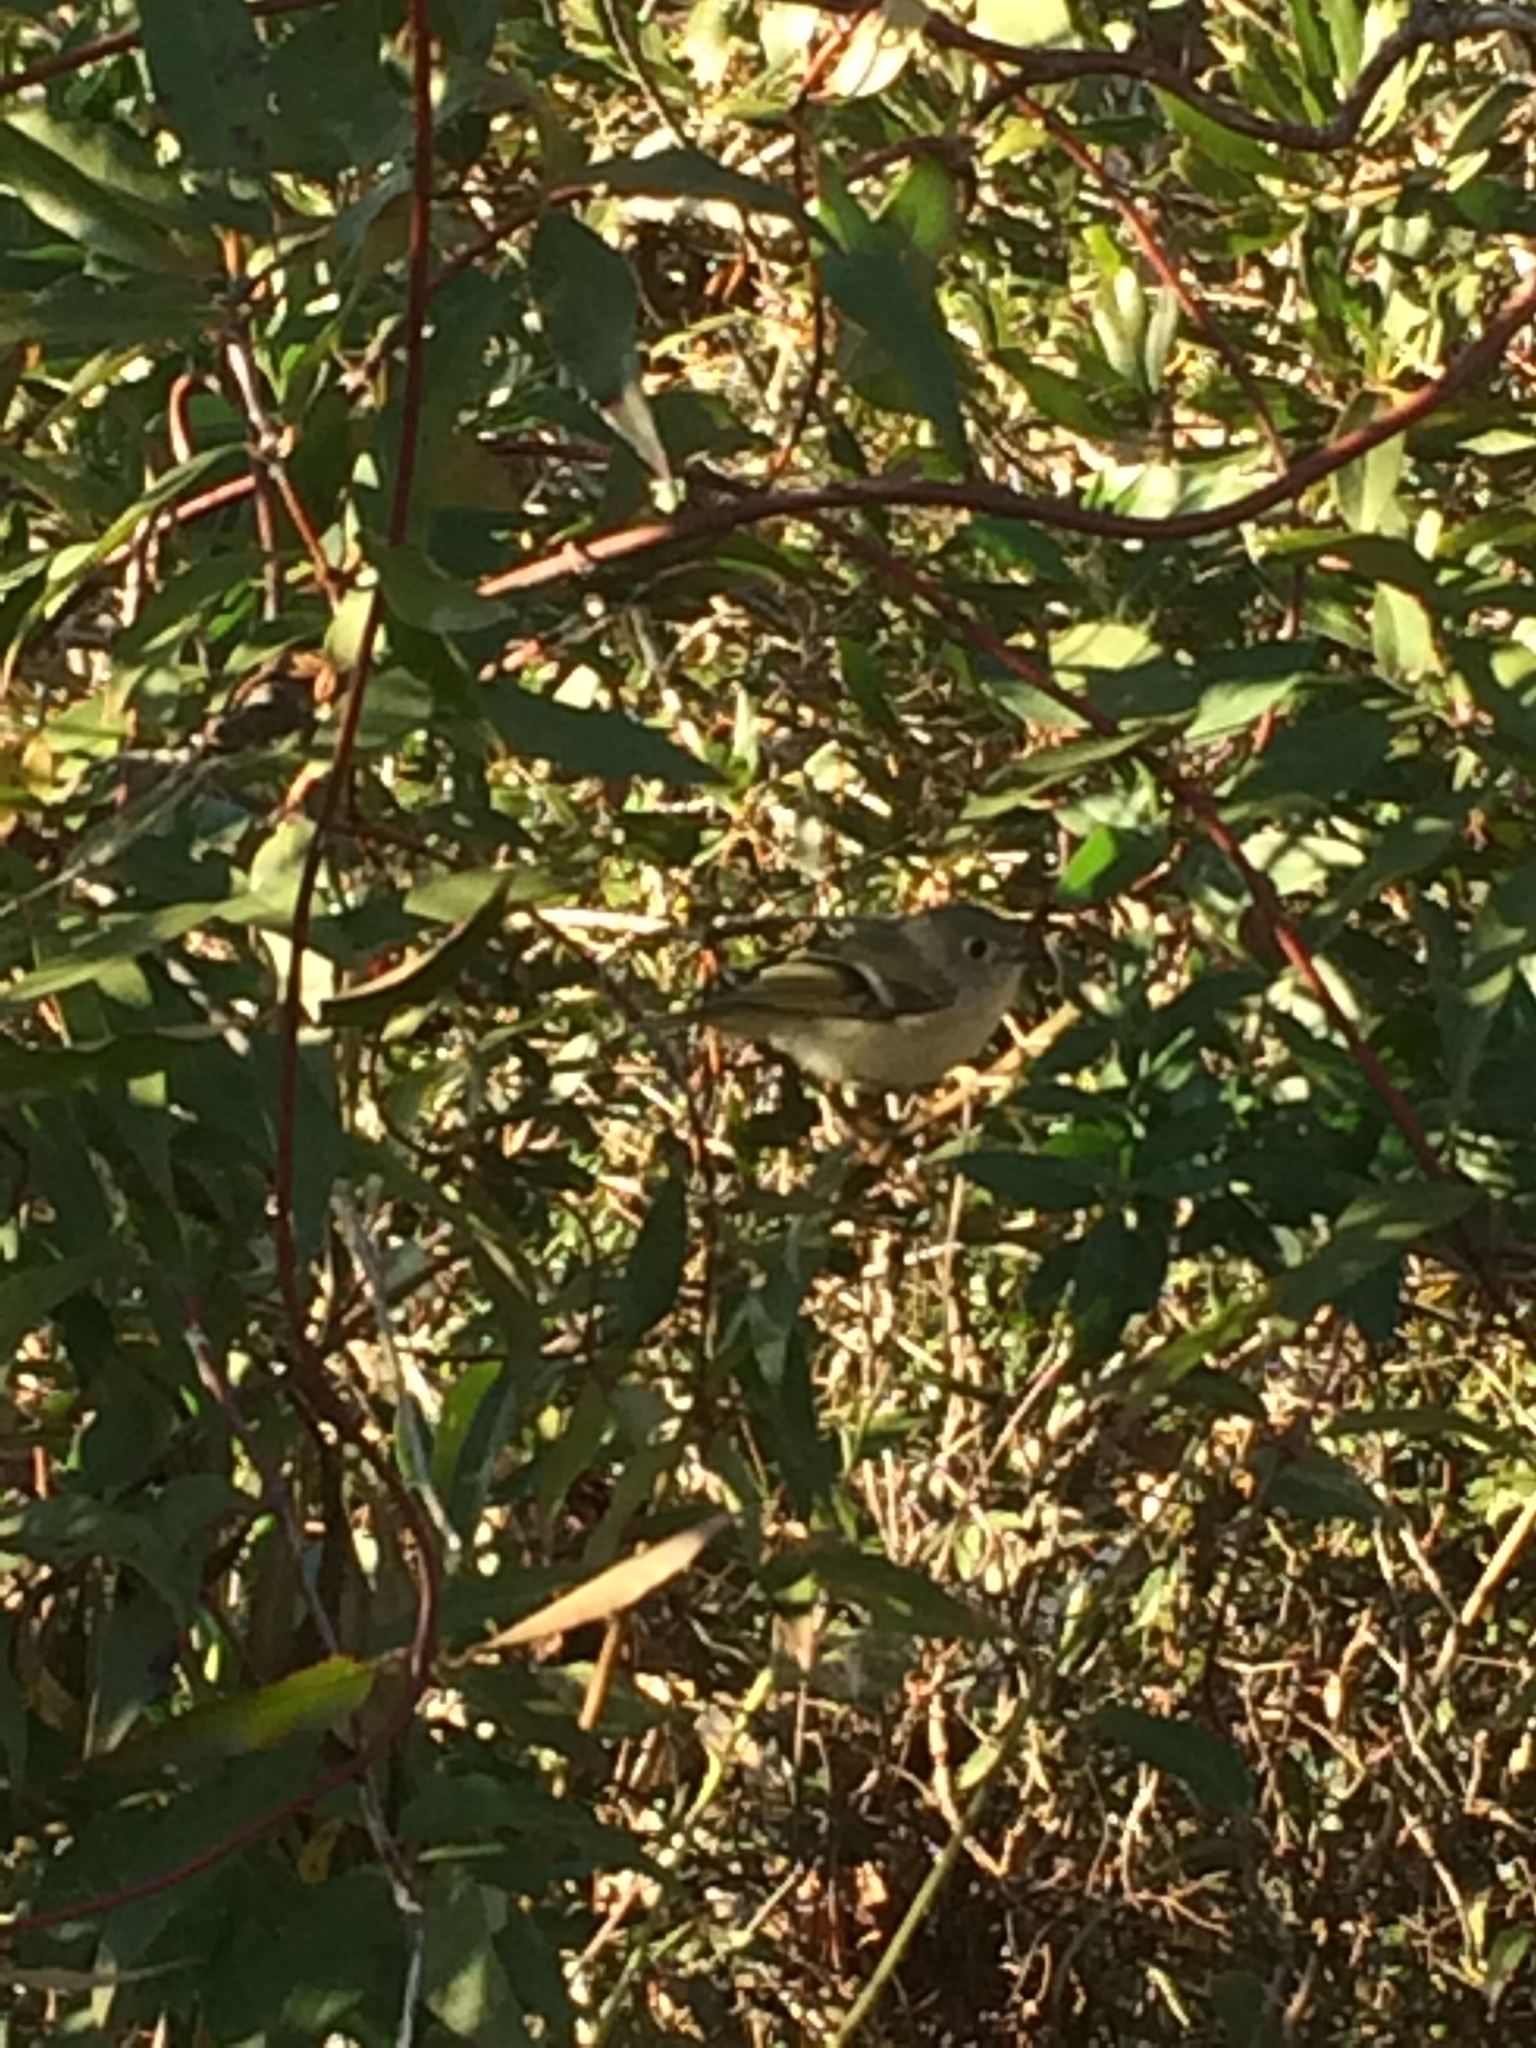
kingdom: Animalia
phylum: Chordata
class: Aves
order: Passeriformes
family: Regulidae
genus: Regulus
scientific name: Regulus calendula
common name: Ruby-crowned kinglet
